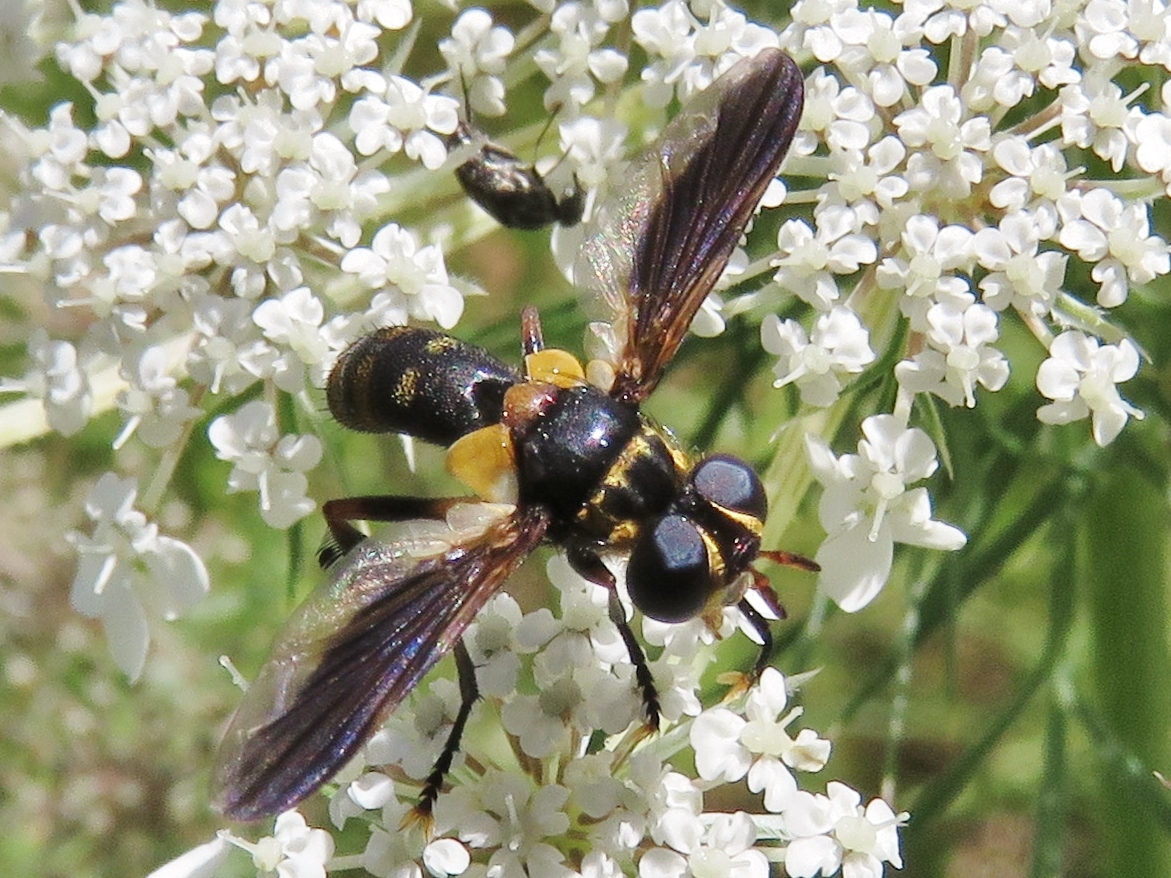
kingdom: Animalia
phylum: Arthropoda
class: Insecta
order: Diptera
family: Tachinidae
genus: Trichopoda
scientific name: Trichopoda plumipes
